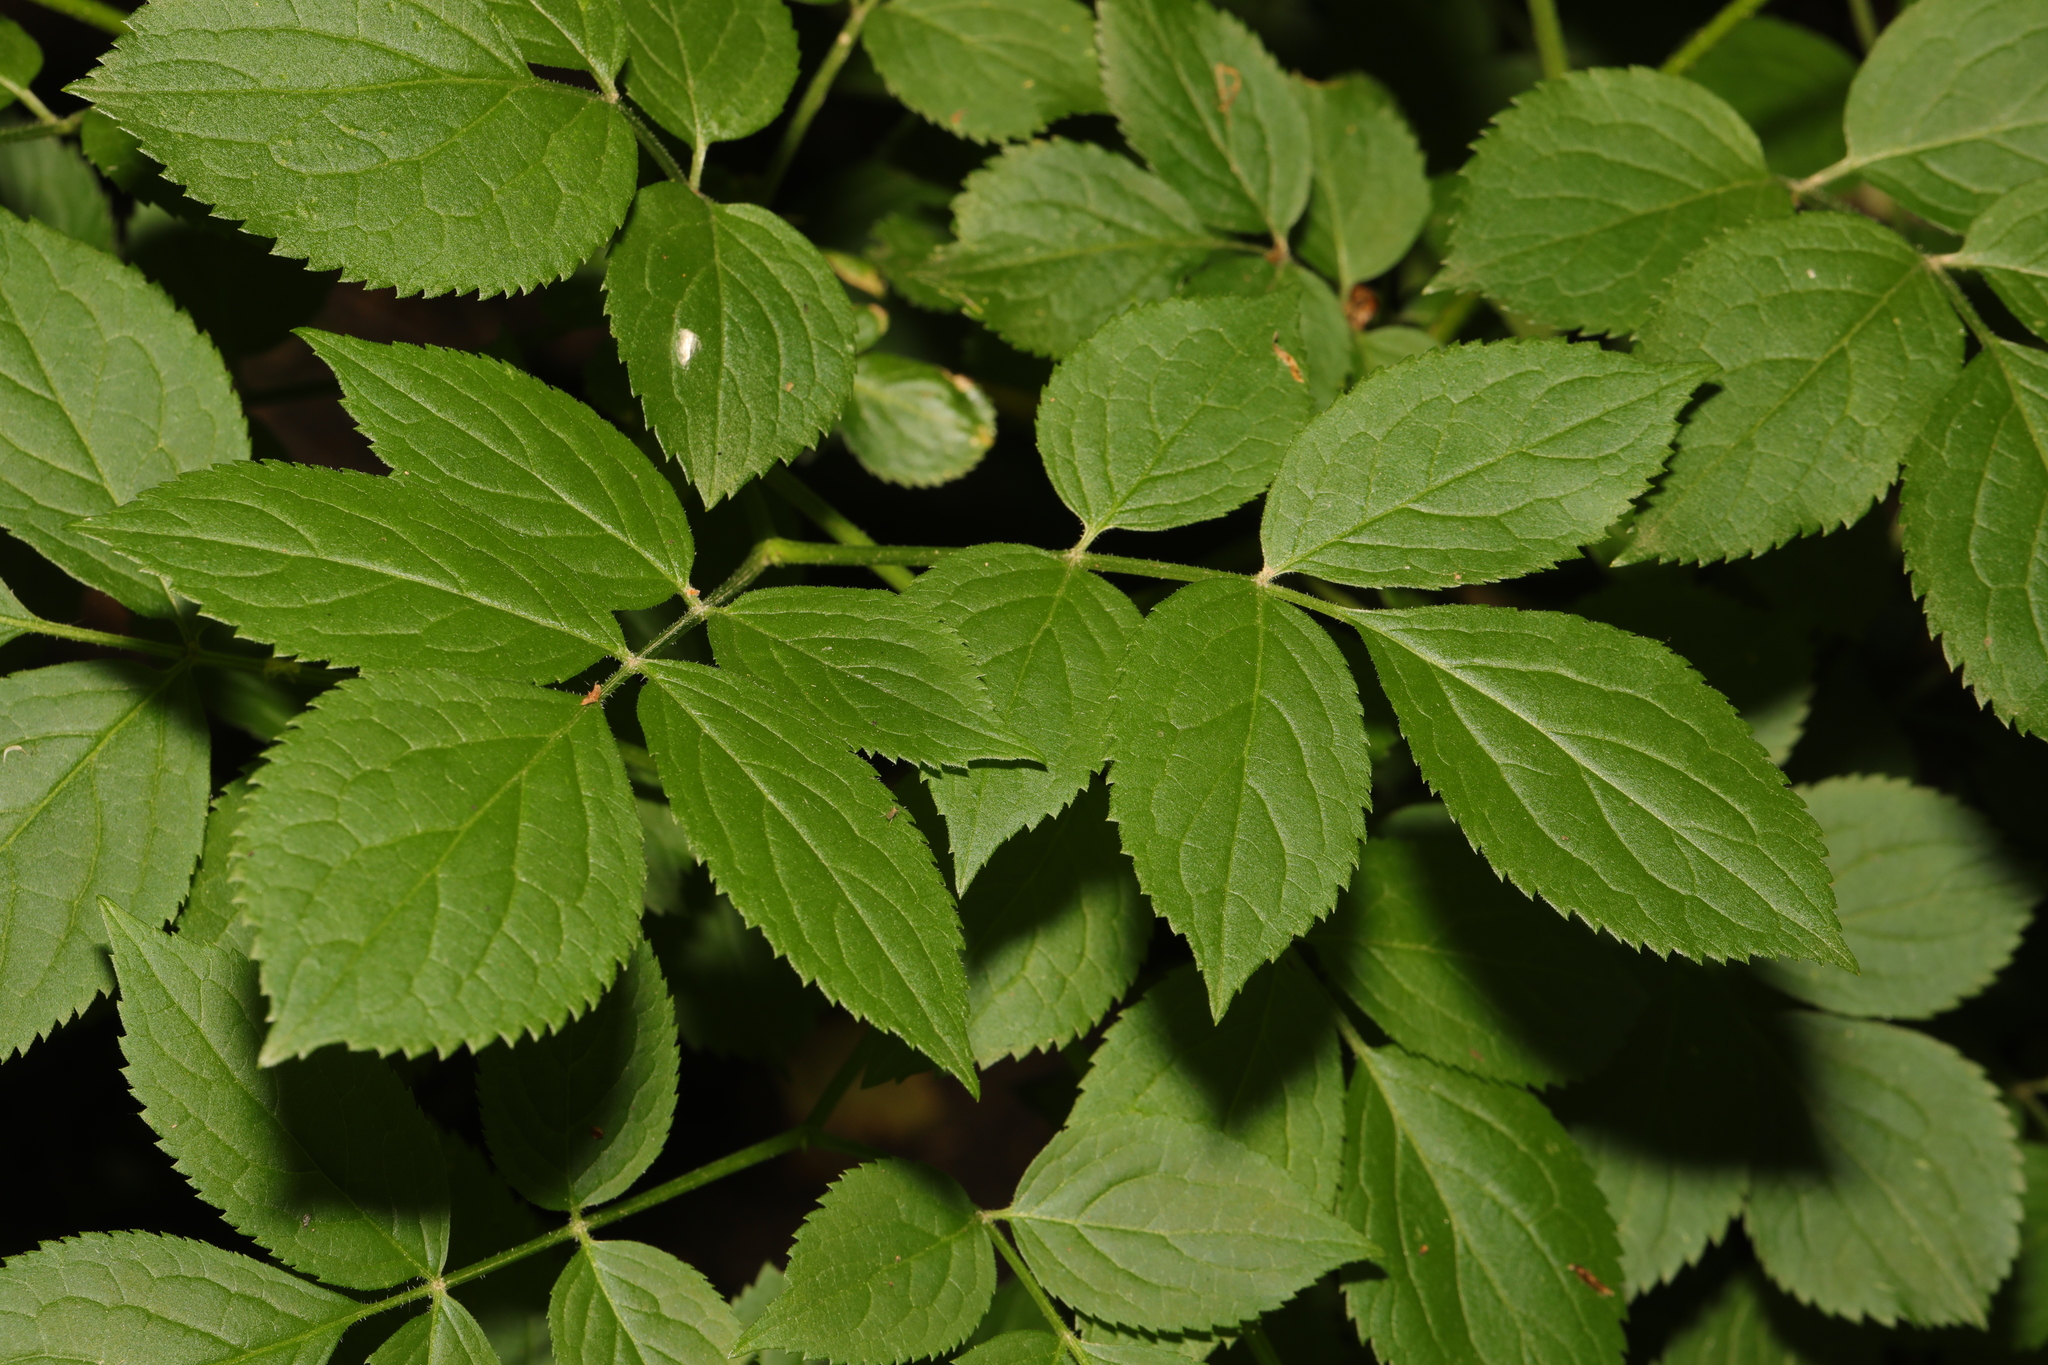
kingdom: Plantae
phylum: Tracheophyta
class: Magnoliopsida
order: Dipsacales
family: Viburnaceae
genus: Sambucus
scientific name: Sambucus nigra
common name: Elder
